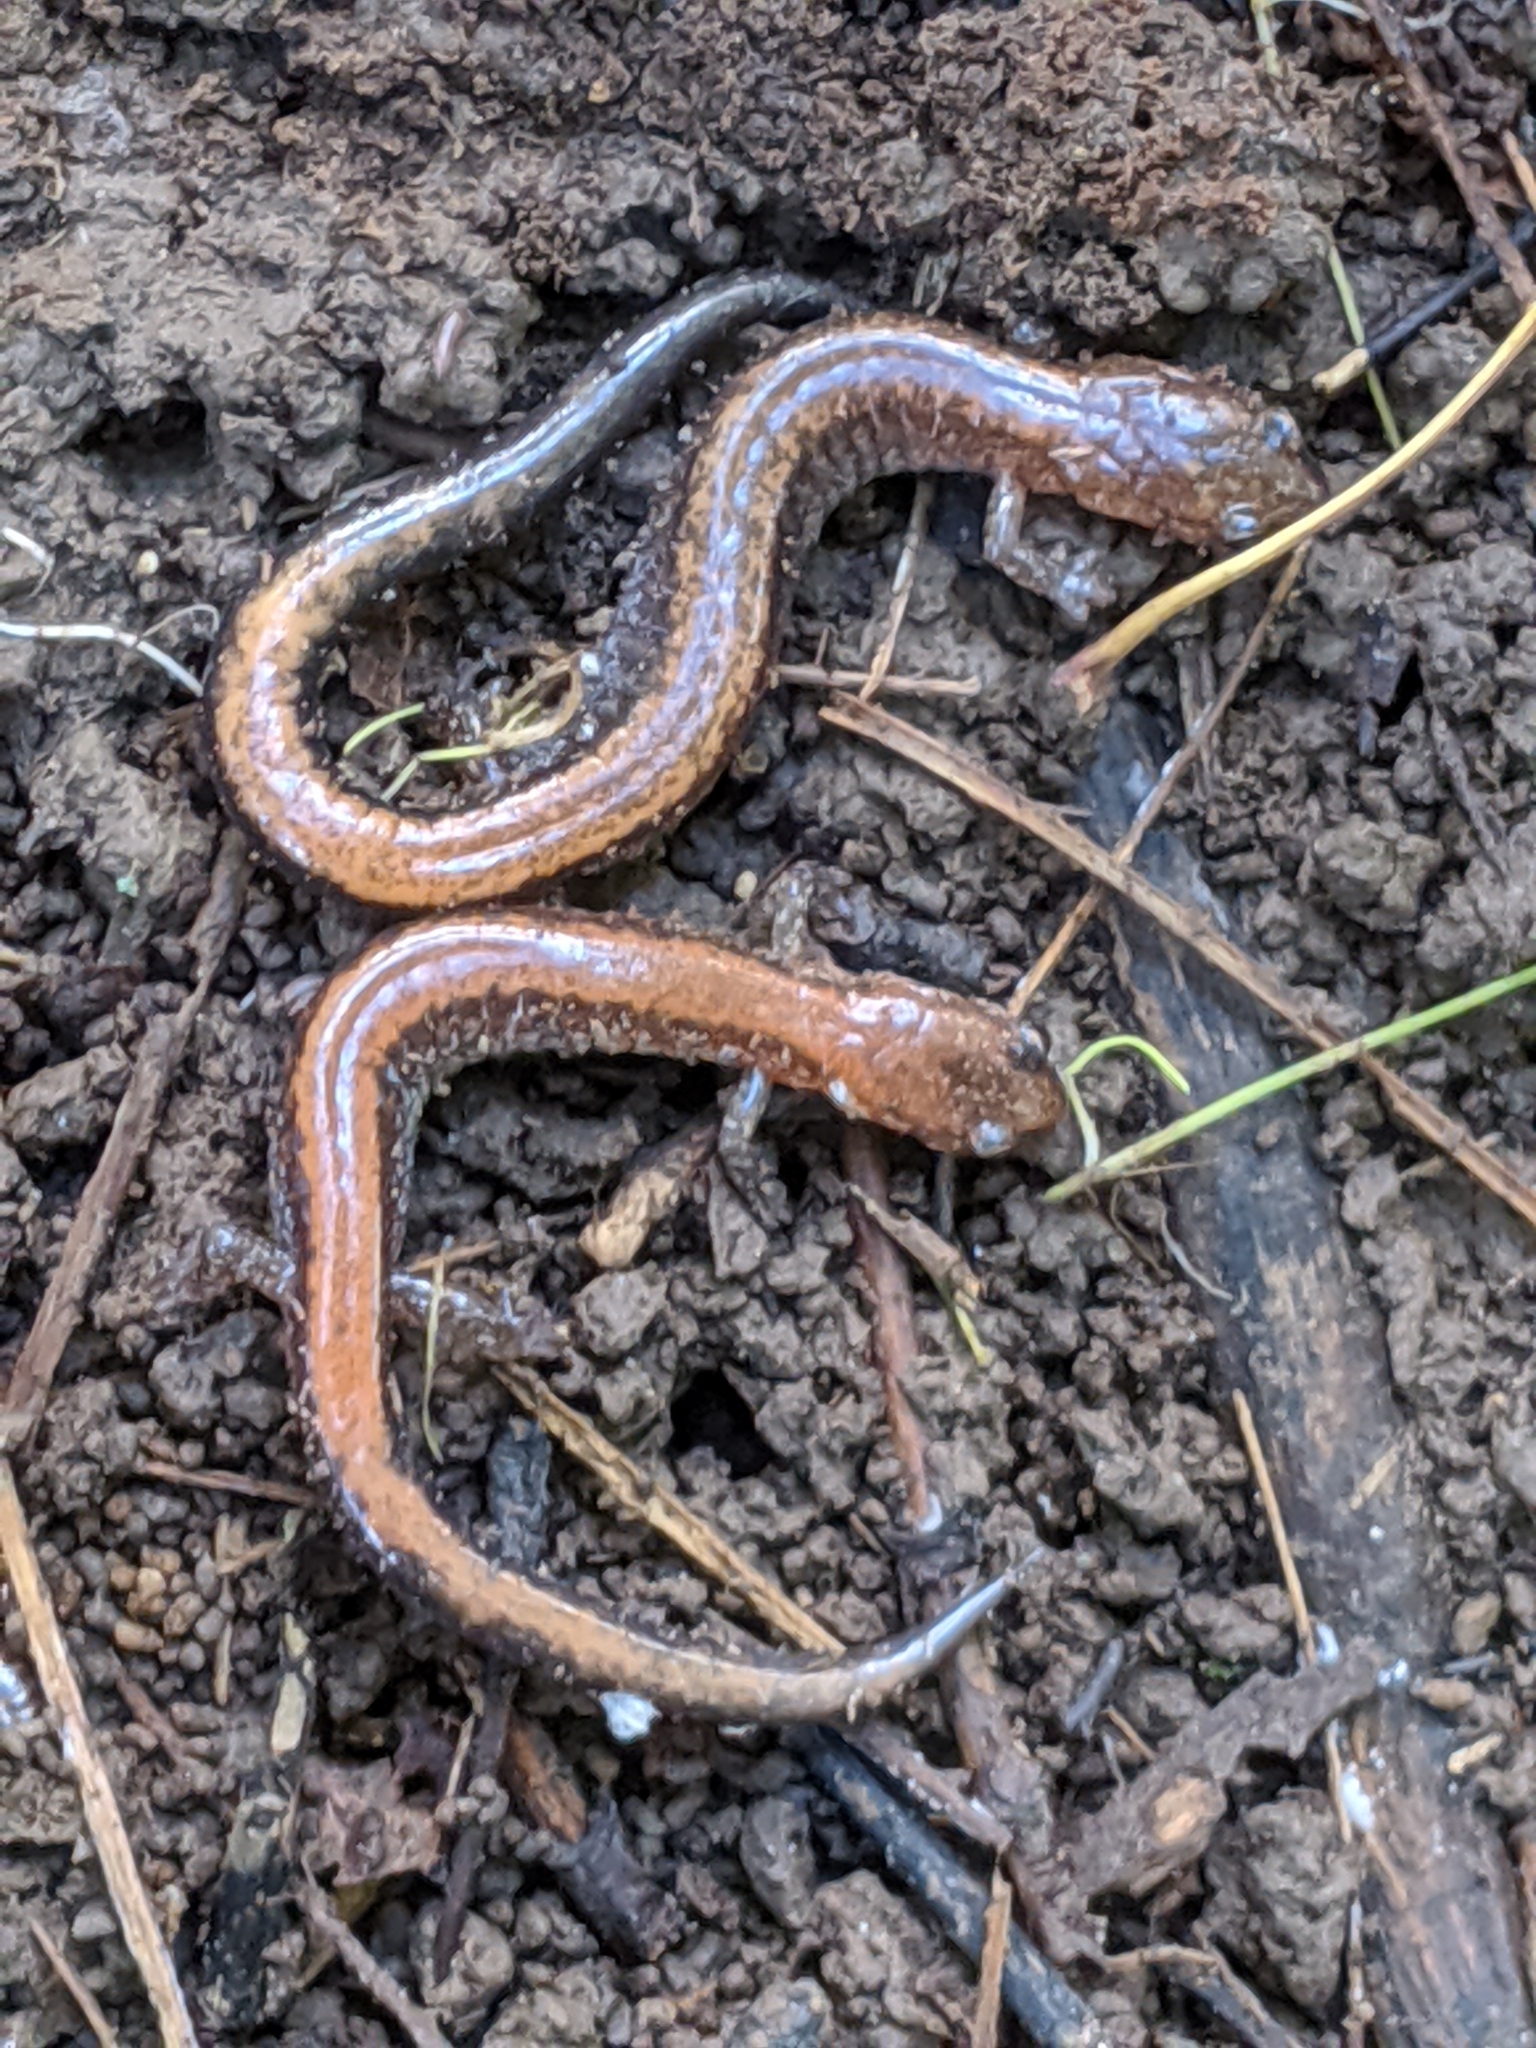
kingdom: Animalia
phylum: Chordata
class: Amphibia
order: Caudata
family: Plethodontidae
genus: Plethodon
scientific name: Plethodon cinereus
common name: Redback salamander
